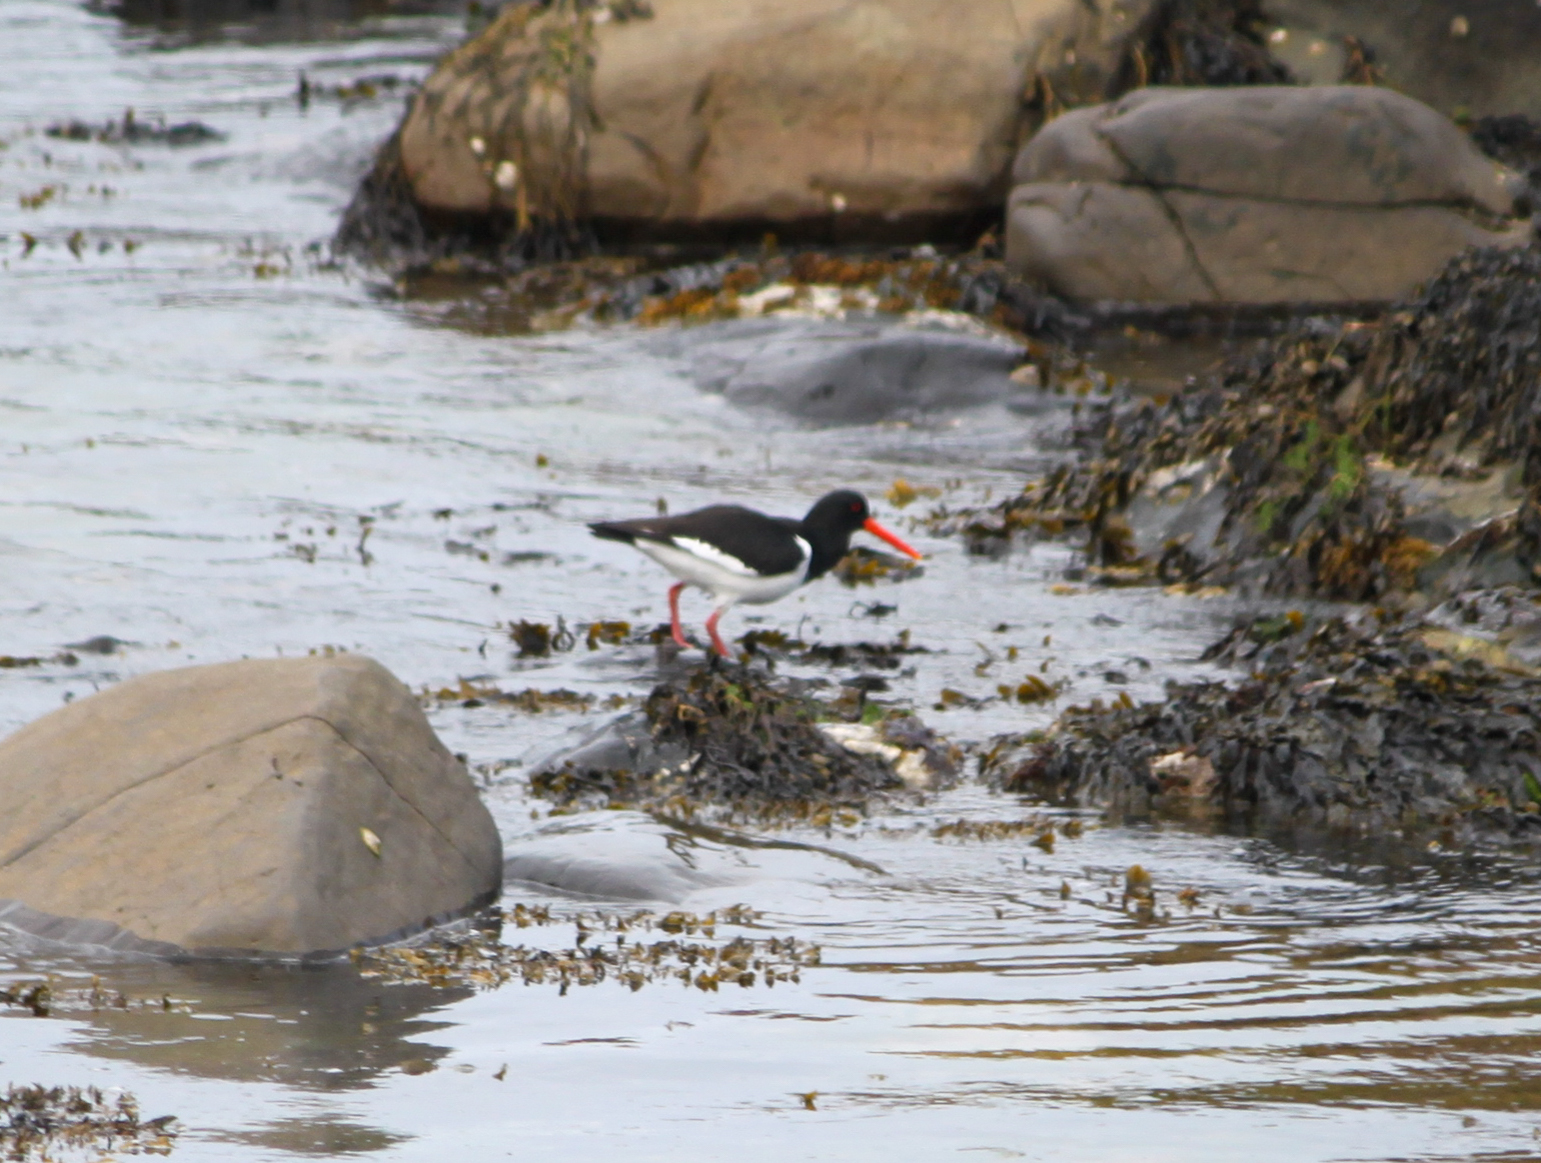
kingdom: Animalia
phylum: Chordata
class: Aves
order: Charadriiformes
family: Haematopodidae
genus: Haematopus
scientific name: Haematopus ostralegus
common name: Eurasian oystercatcher
